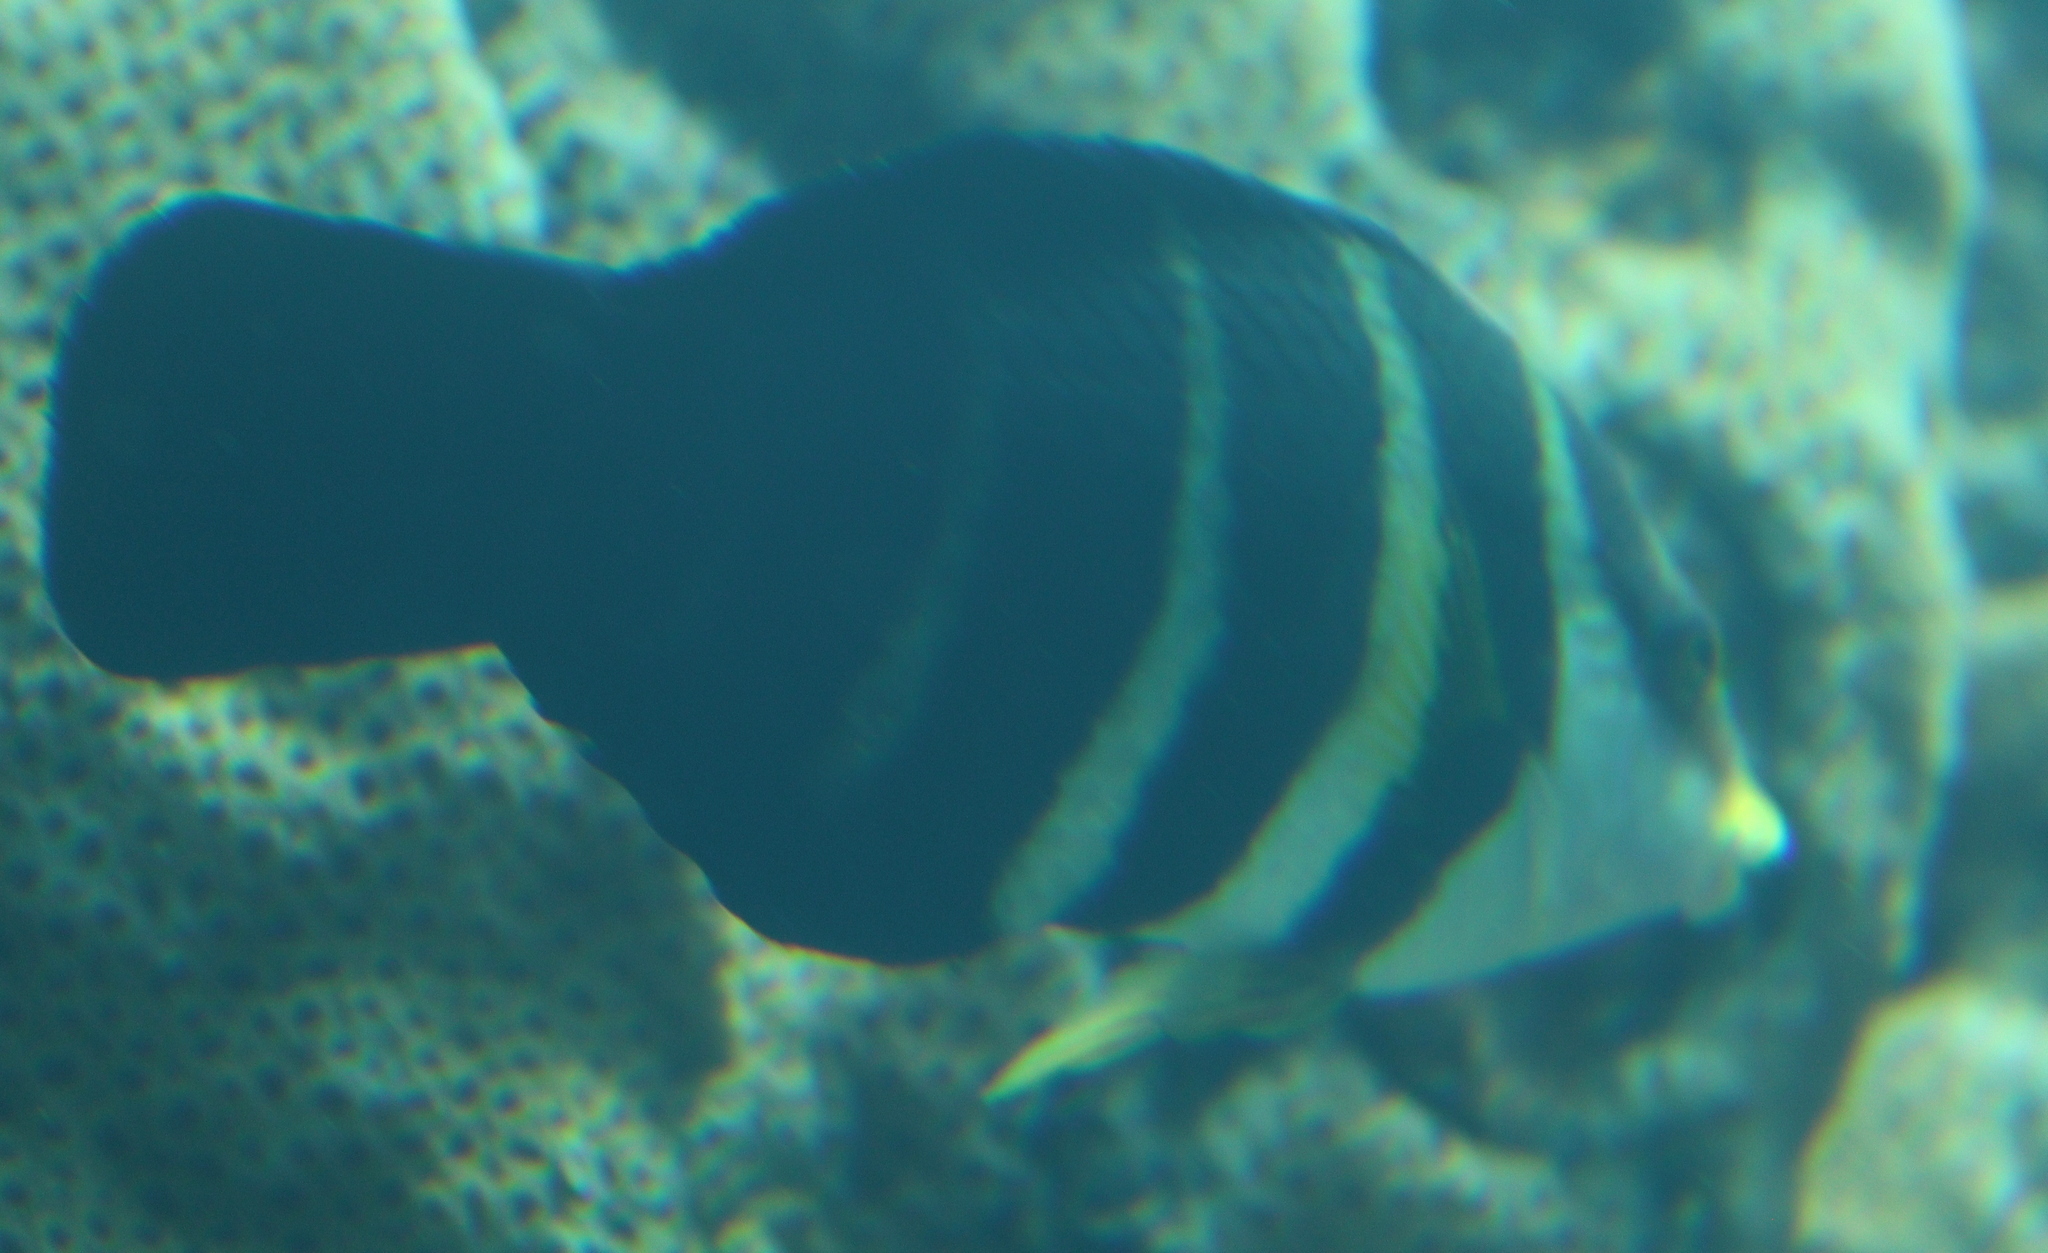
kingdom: Animalia
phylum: Chordata
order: Perciformes
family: Labridae
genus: Hemigymnus
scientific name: Hemigymnus sexfasciatus
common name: Barred thicklip
